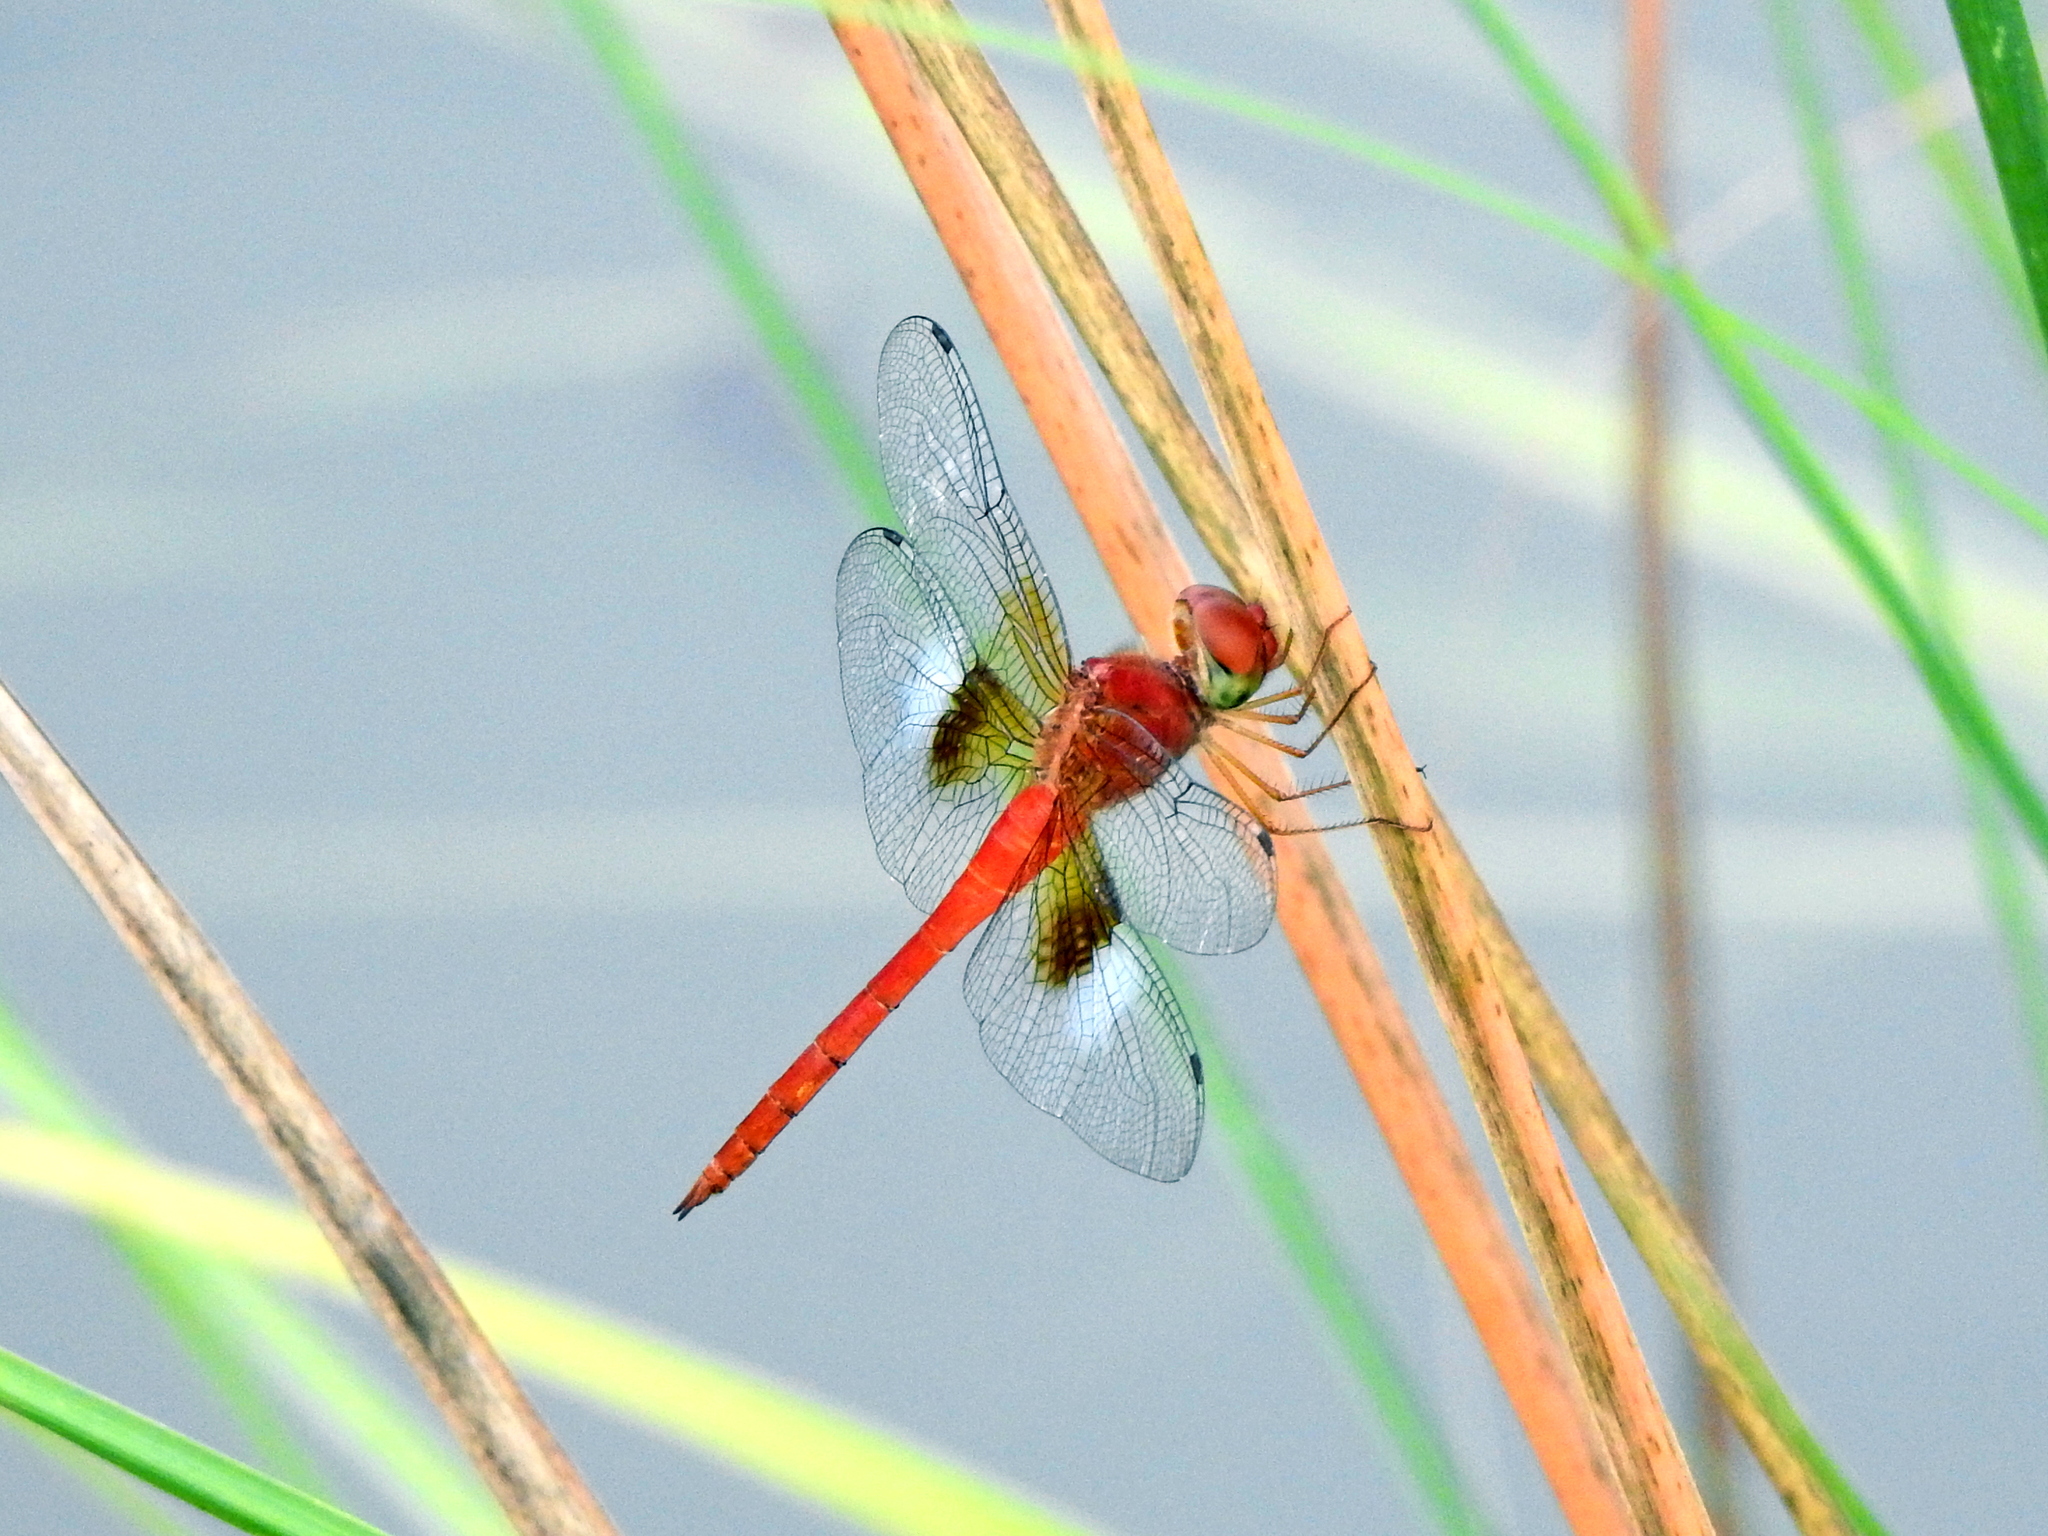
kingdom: Animalia
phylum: Arthropoda
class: Insecta
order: Odonata
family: Libellulidae
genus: Tholymis
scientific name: Tholymis tillarga
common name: Coral-tailed cloud wing
